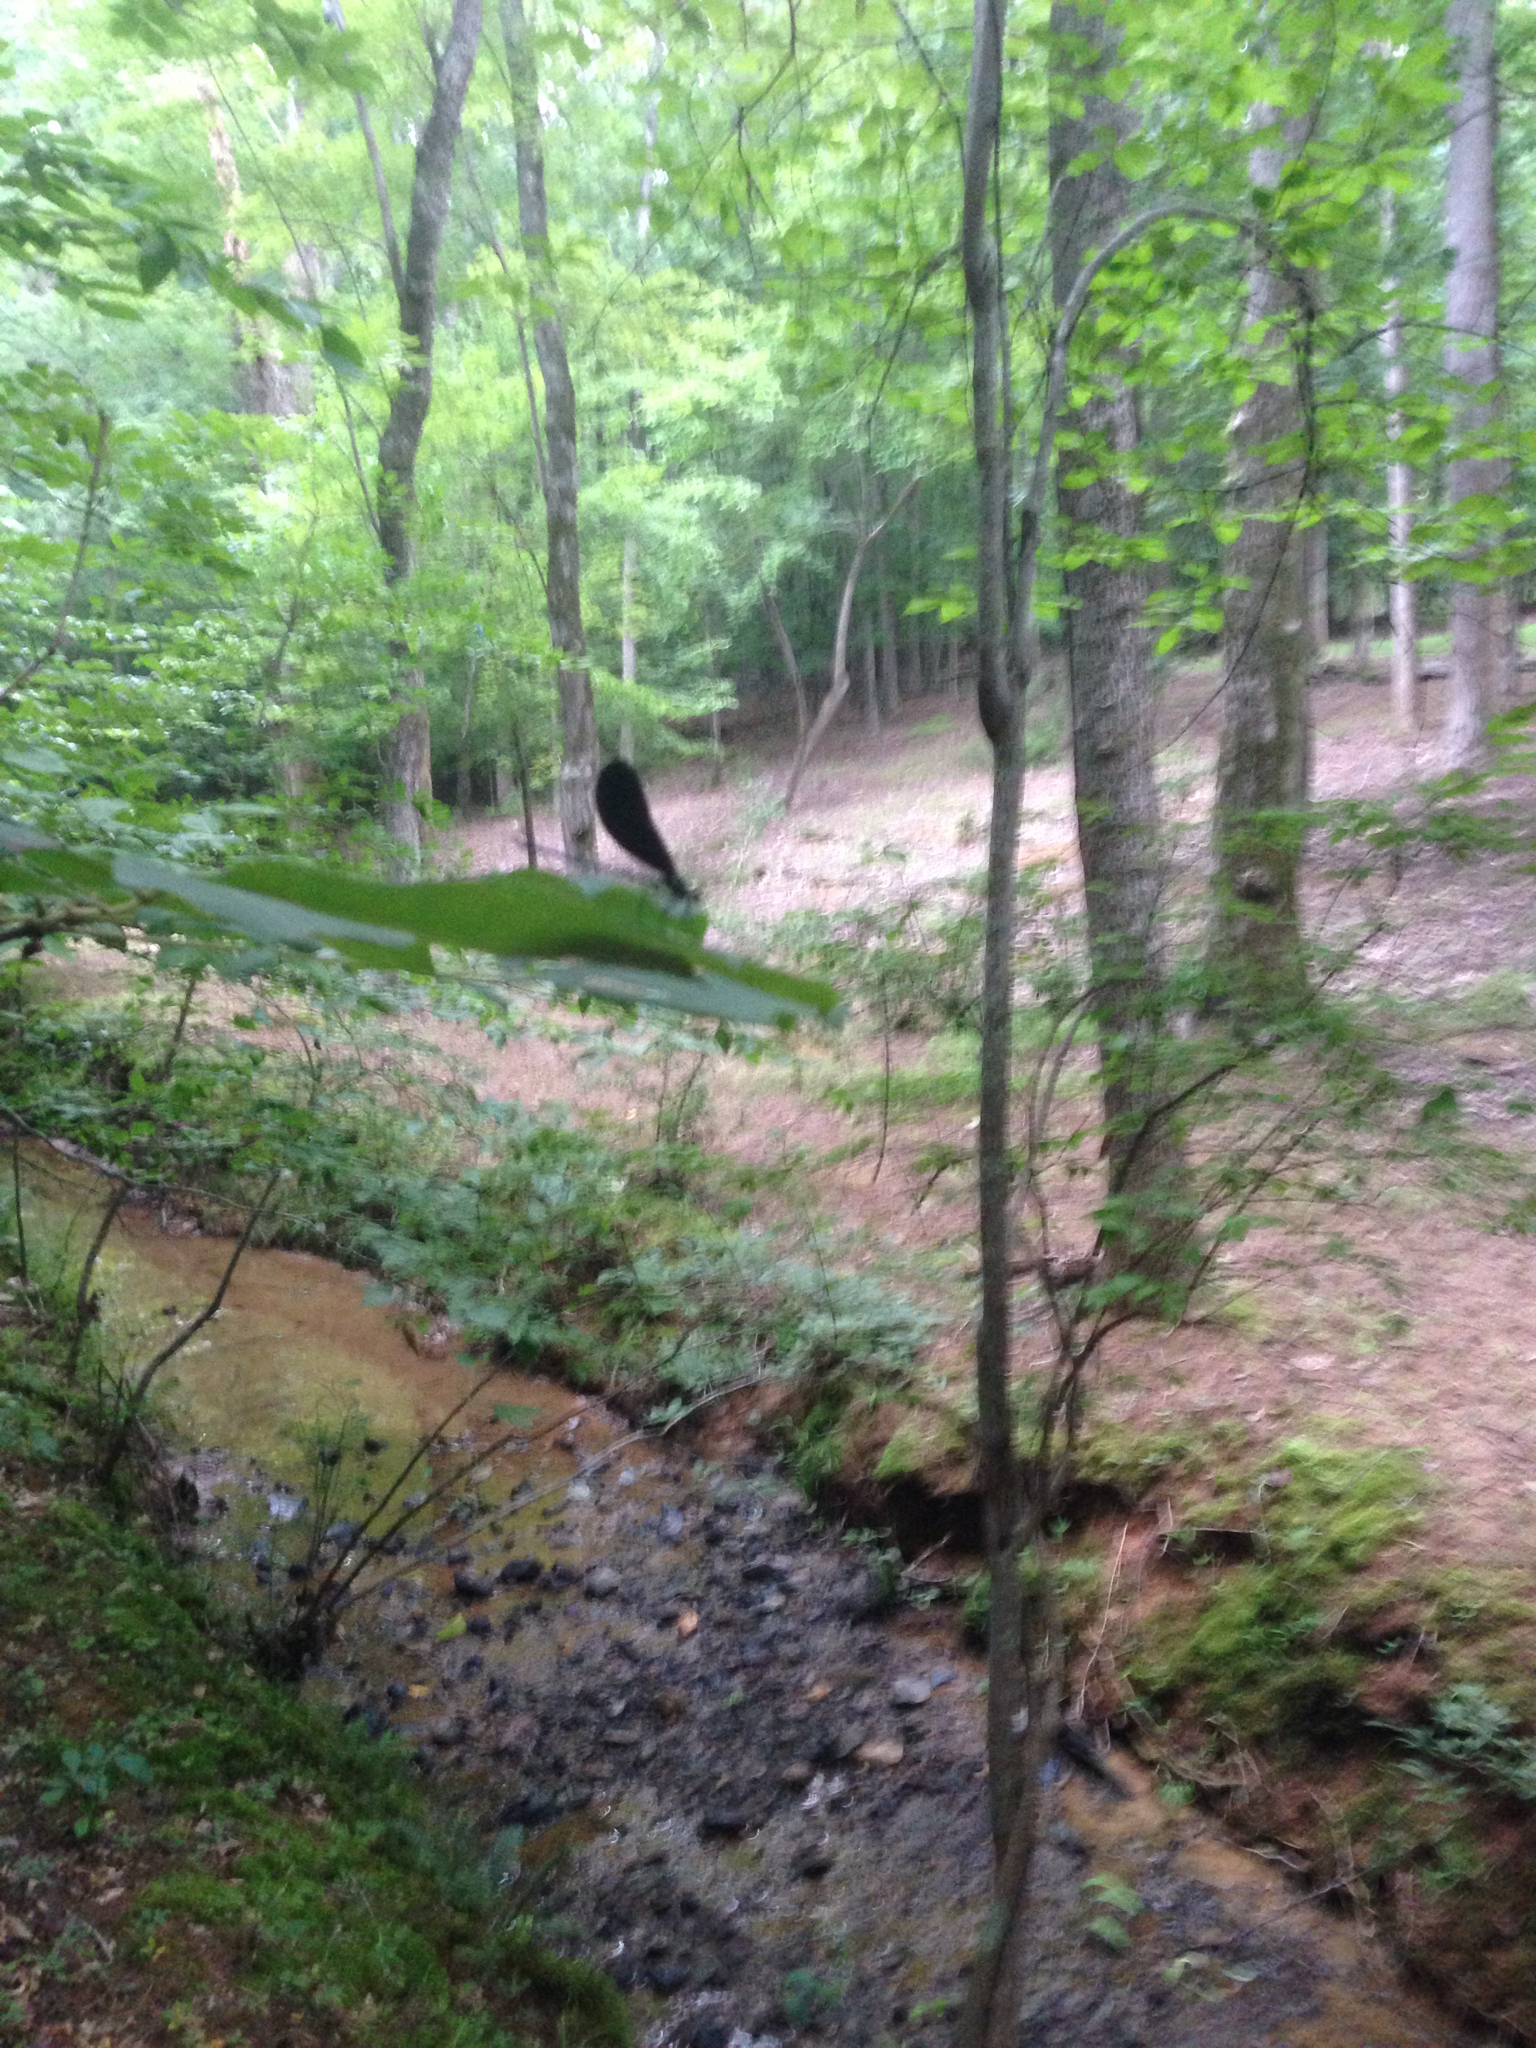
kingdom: Animalia
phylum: Arthropoda
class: Insecta
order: Odonata
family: Calopterygidae
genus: Calopteryx
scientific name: Calopteryx maculata
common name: Ebony jewelwing
